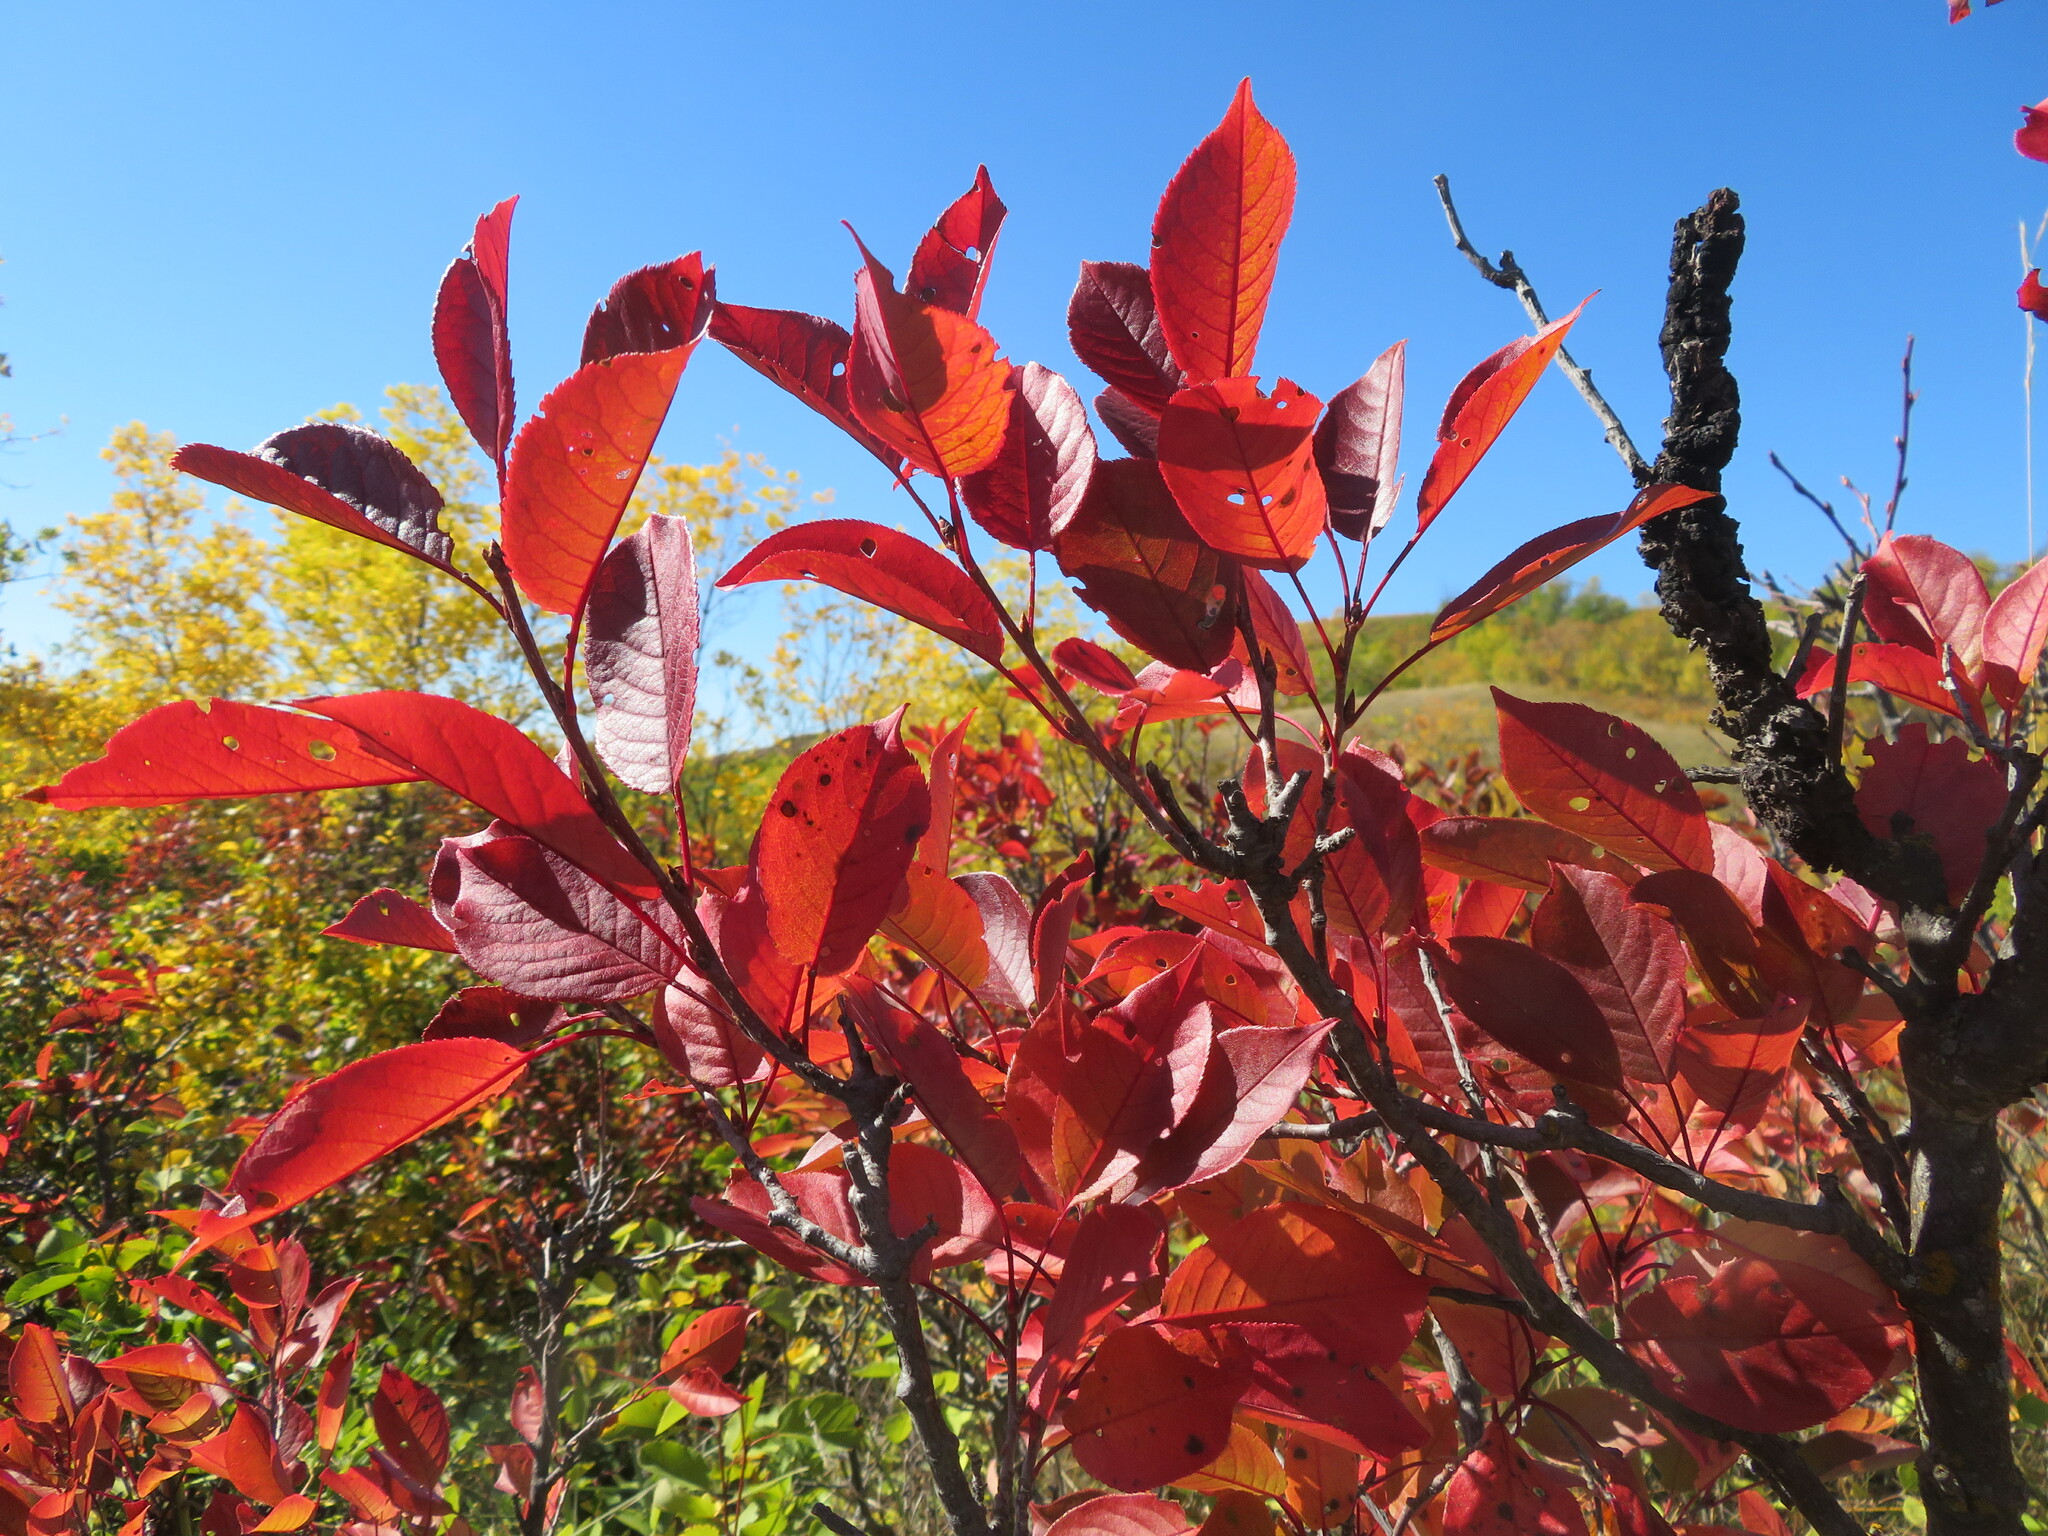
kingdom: Plantae
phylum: Tracheophyta
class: Magnoliopsida
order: Rosales
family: Rosaceae
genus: Prunus
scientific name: Prunus virginiana
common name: Chokecherry
